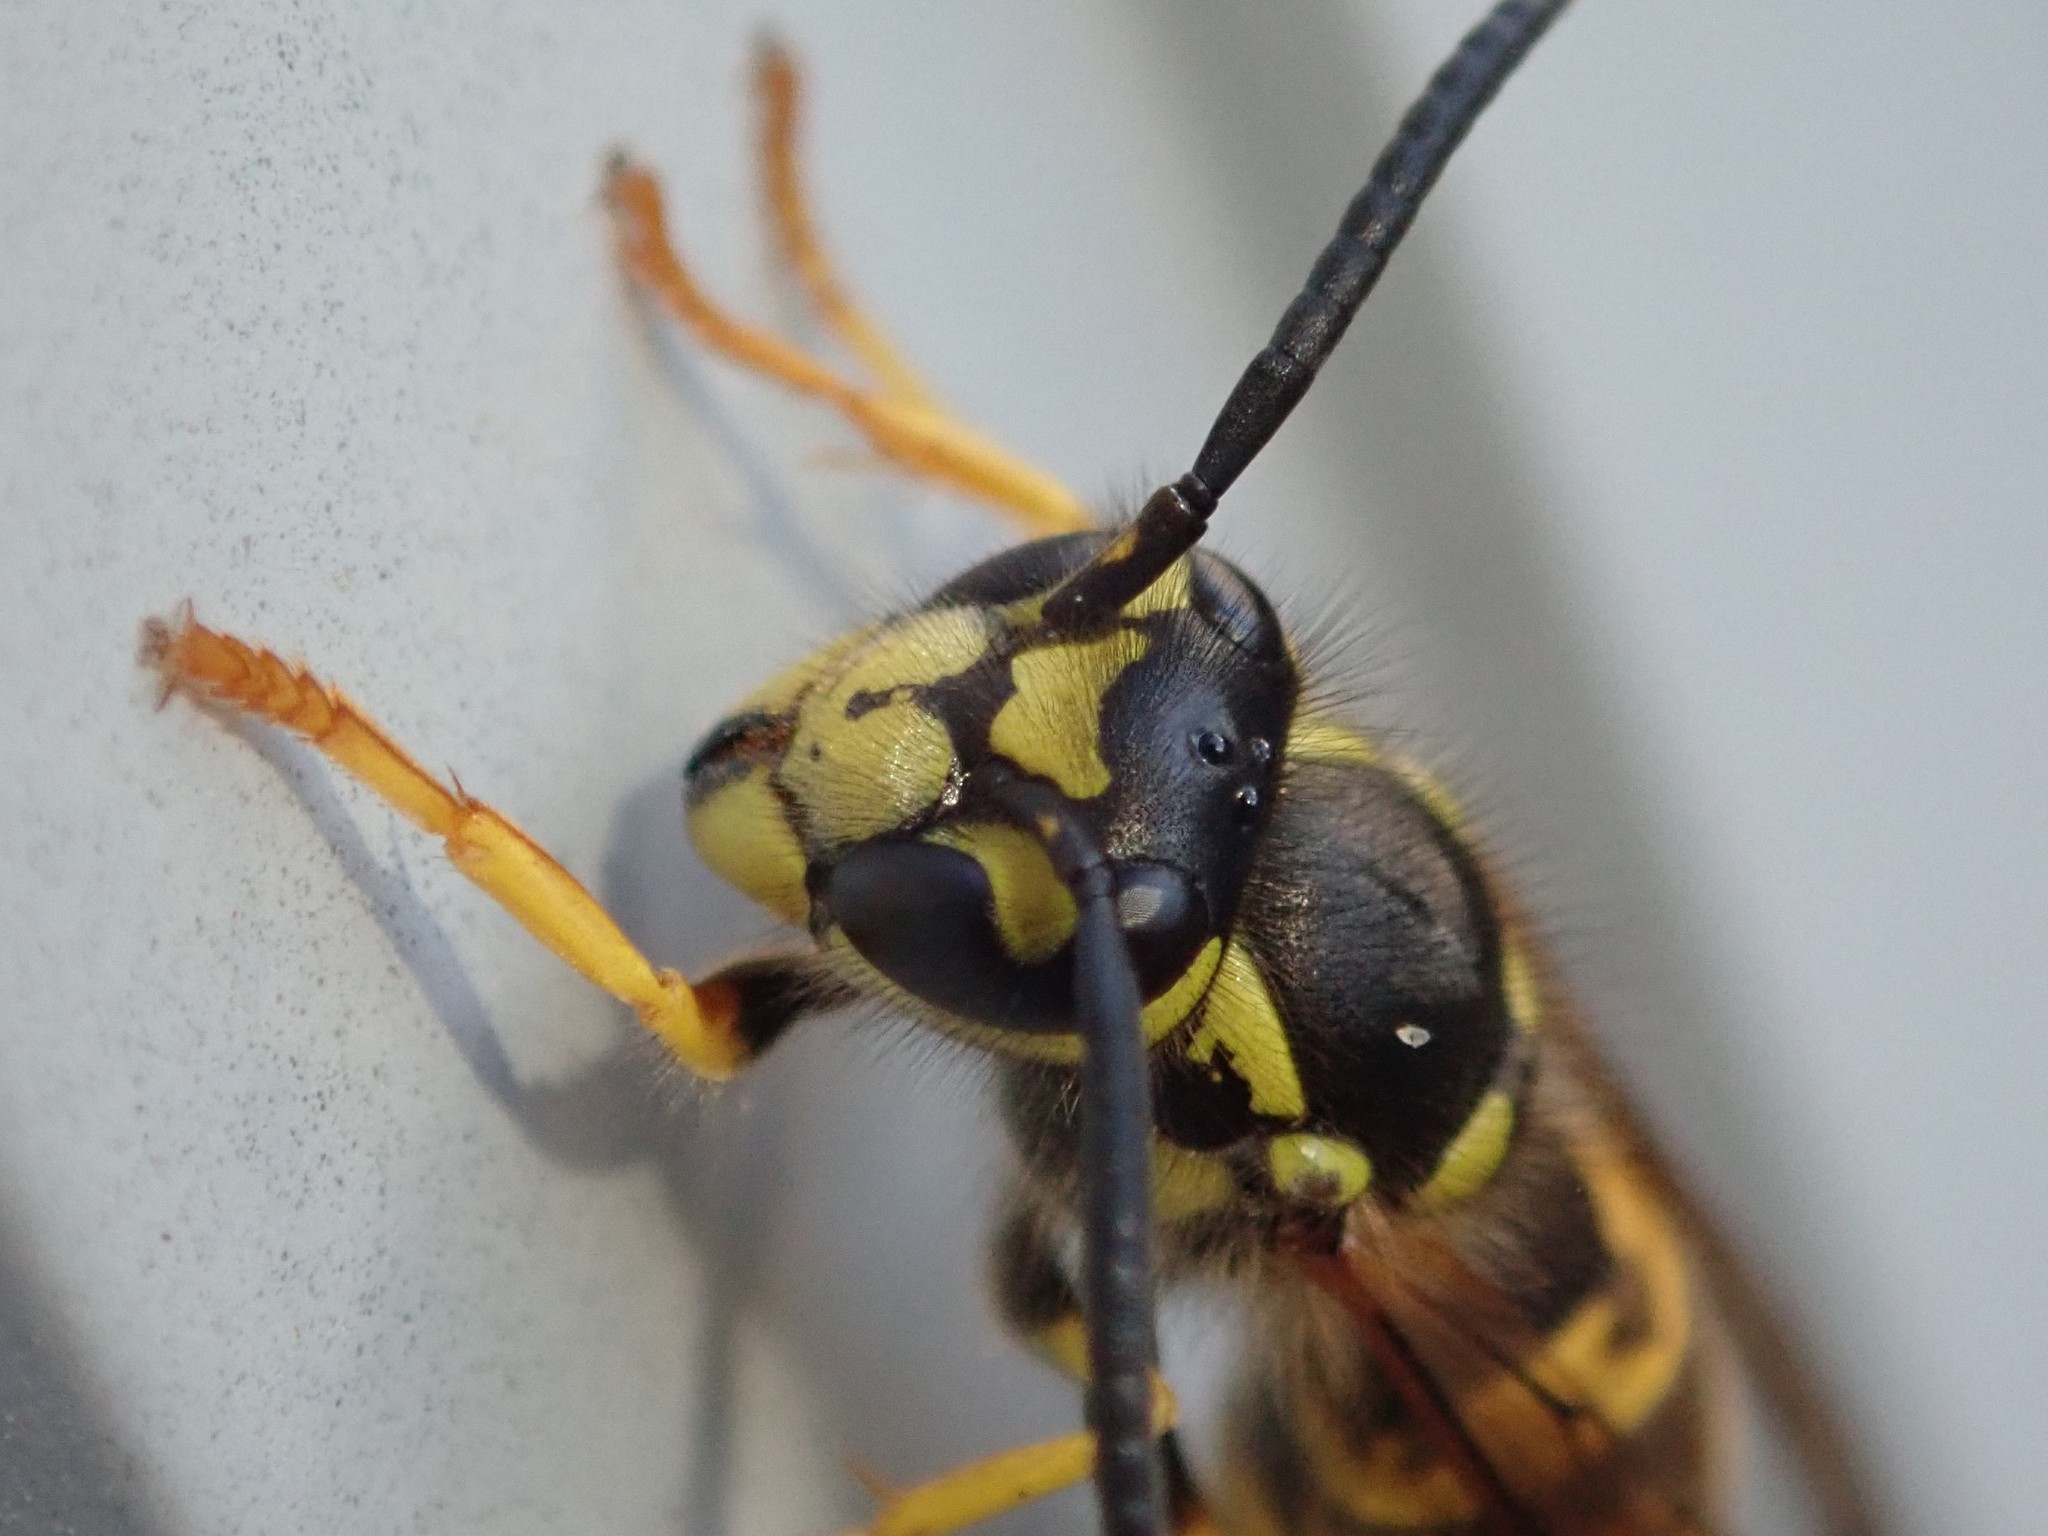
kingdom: Animalia
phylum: Arthropoda
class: Insecta
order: Hymenoptera
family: Vespidae
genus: Vespula
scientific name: Vespula germanica
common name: German wasp
